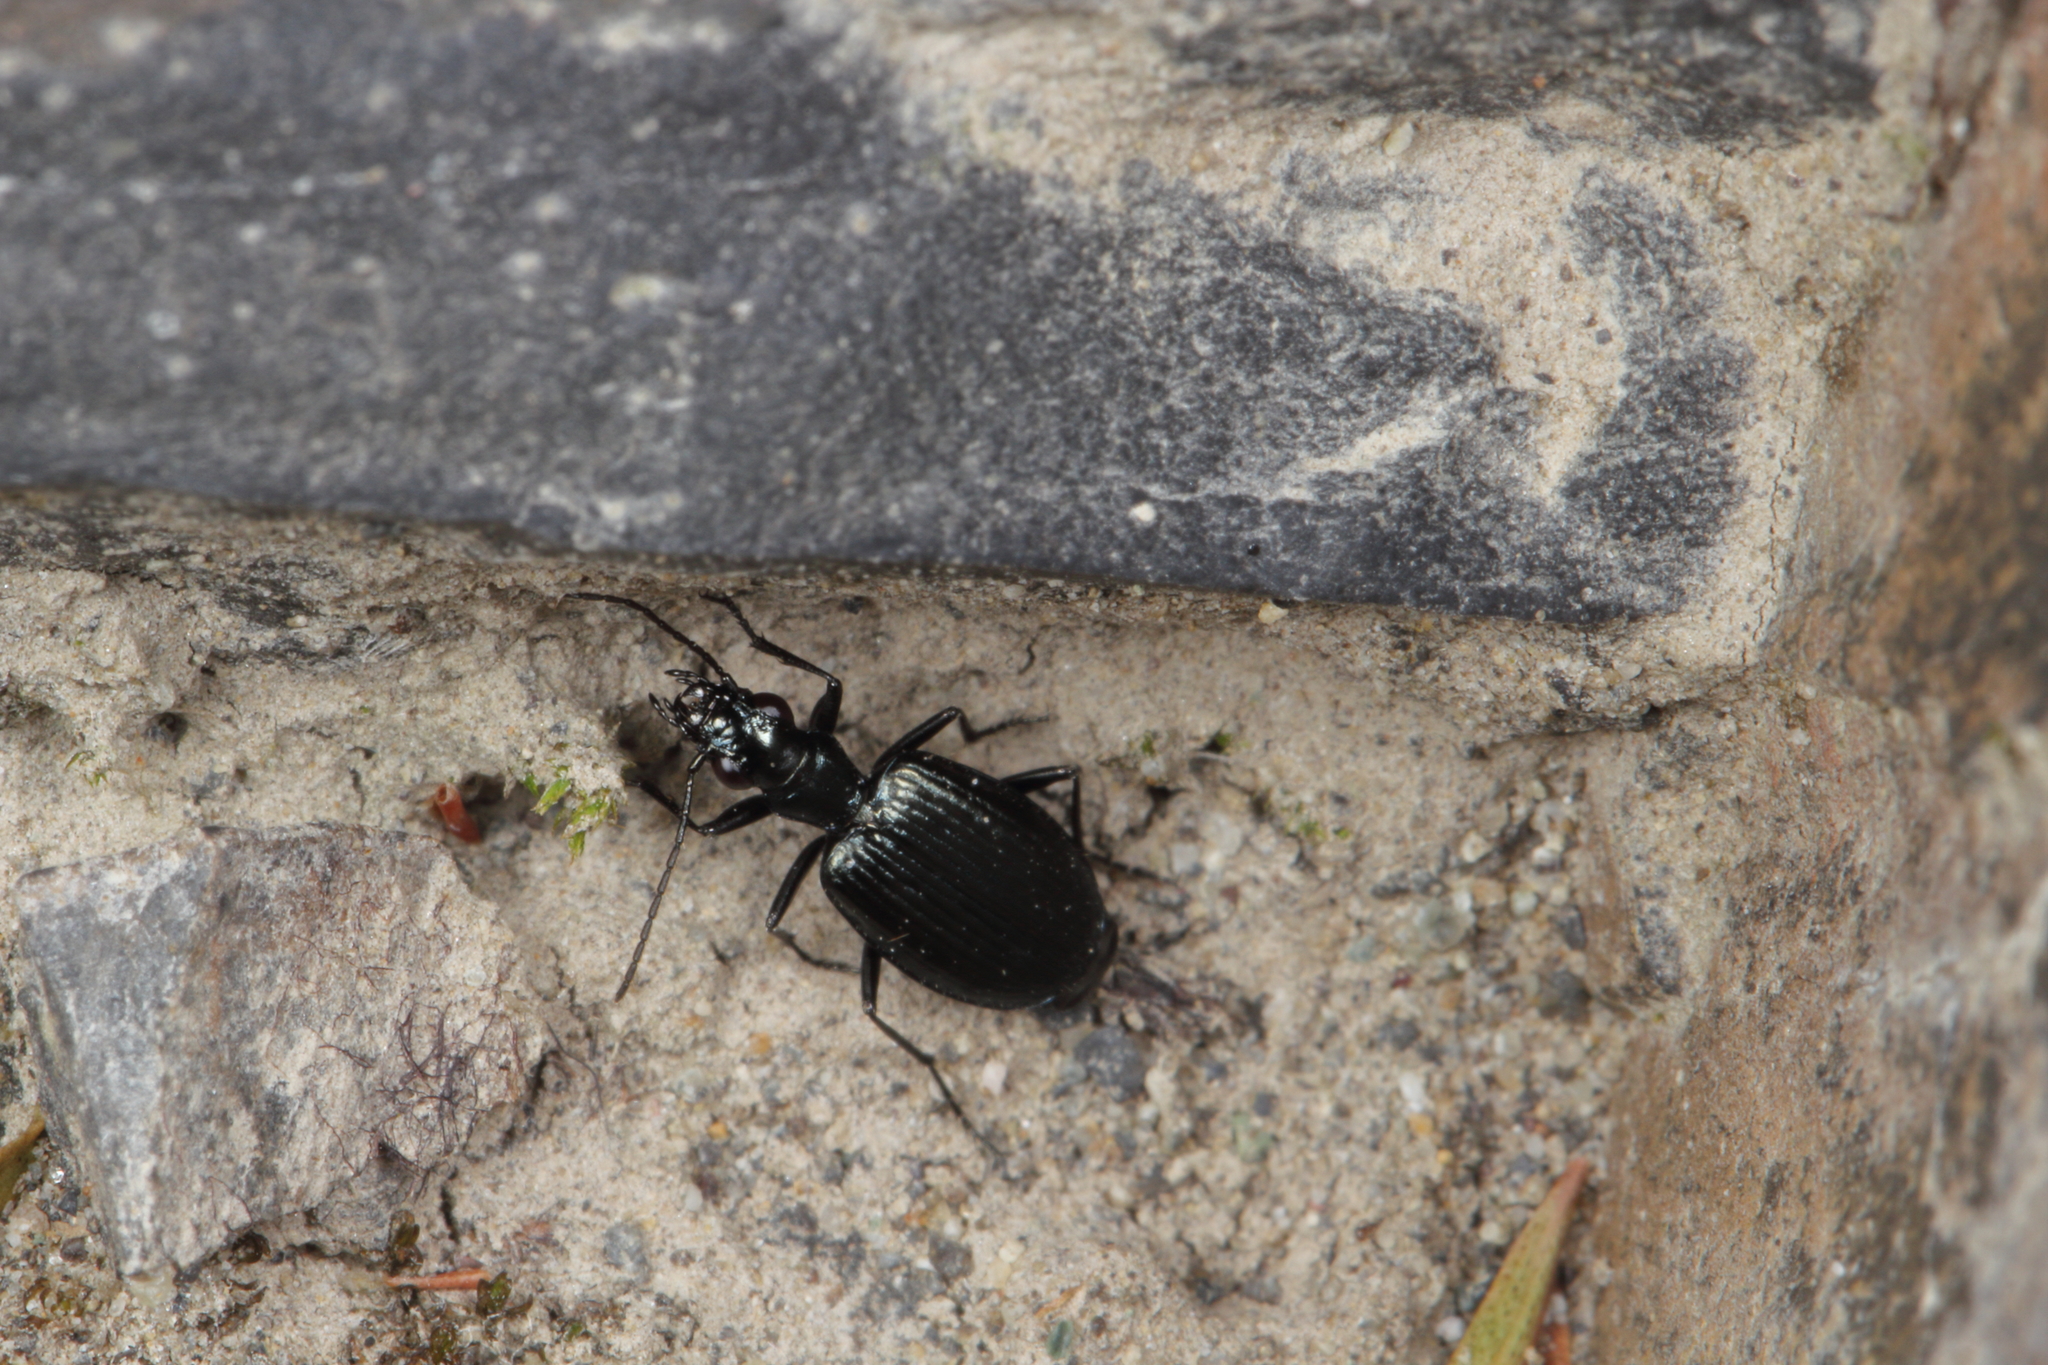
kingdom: Animalia
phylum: Arthropoda
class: Insecta
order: Coleoptera
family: Carabidae
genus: Actenonyx
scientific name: Actenonyx bembidioides
